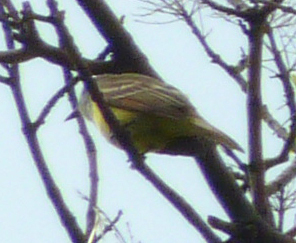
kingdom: Animalia
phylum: Chordata
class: Aves
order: Passeriformes
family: Tyrannidae
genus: Myiarchus
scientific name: Myiarchus crinitus
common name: Great crested flycatcher
